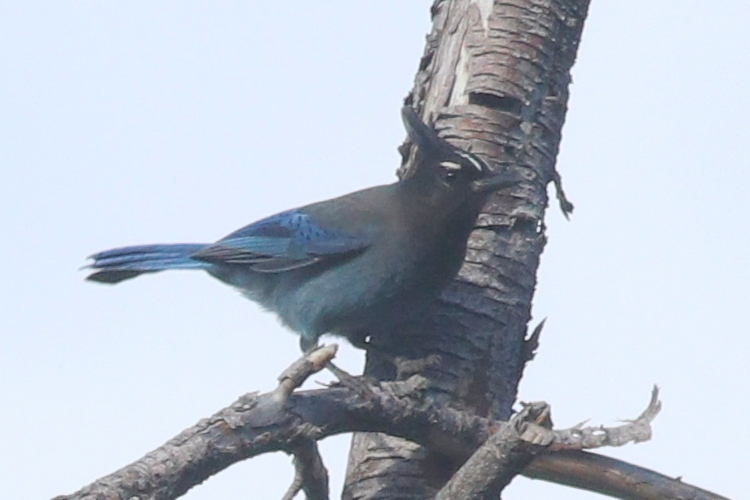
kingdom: Animalia
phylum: Chordata
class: Aves
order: Passeriformes
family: Corvidae
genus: Cyanocitta
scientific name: Cyanocitta stelleri
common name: Steller's jay
